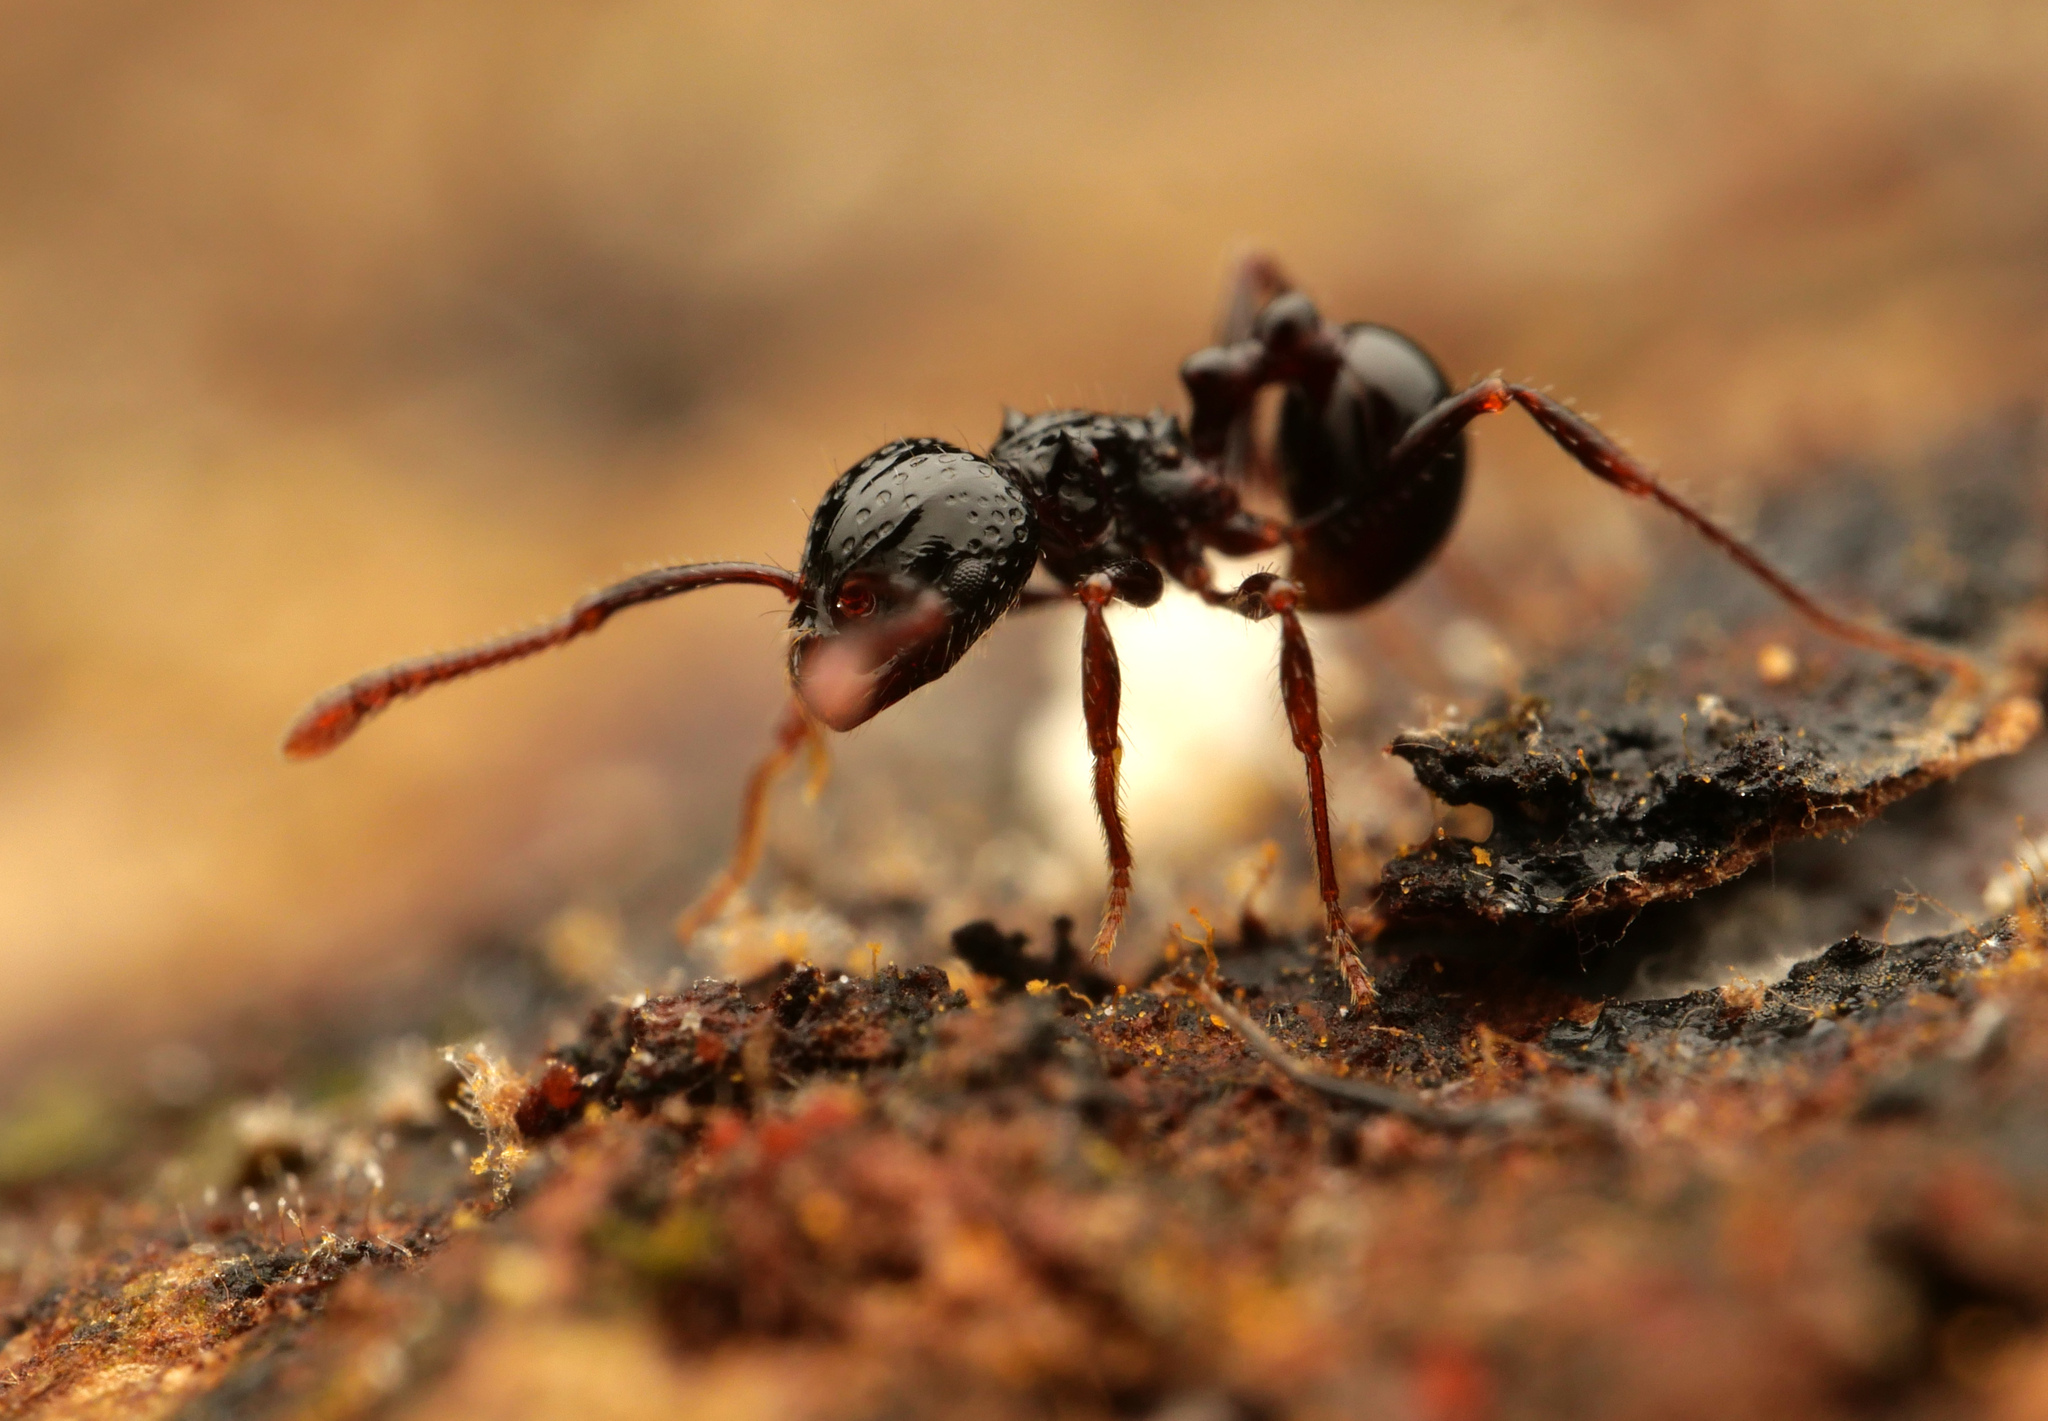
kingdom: Animalia
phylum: Arthropoda
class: Insecta
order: Hymenoptera
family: Formicidae
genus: Pristomyrmex
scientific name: Pristomyrmex quadridens
